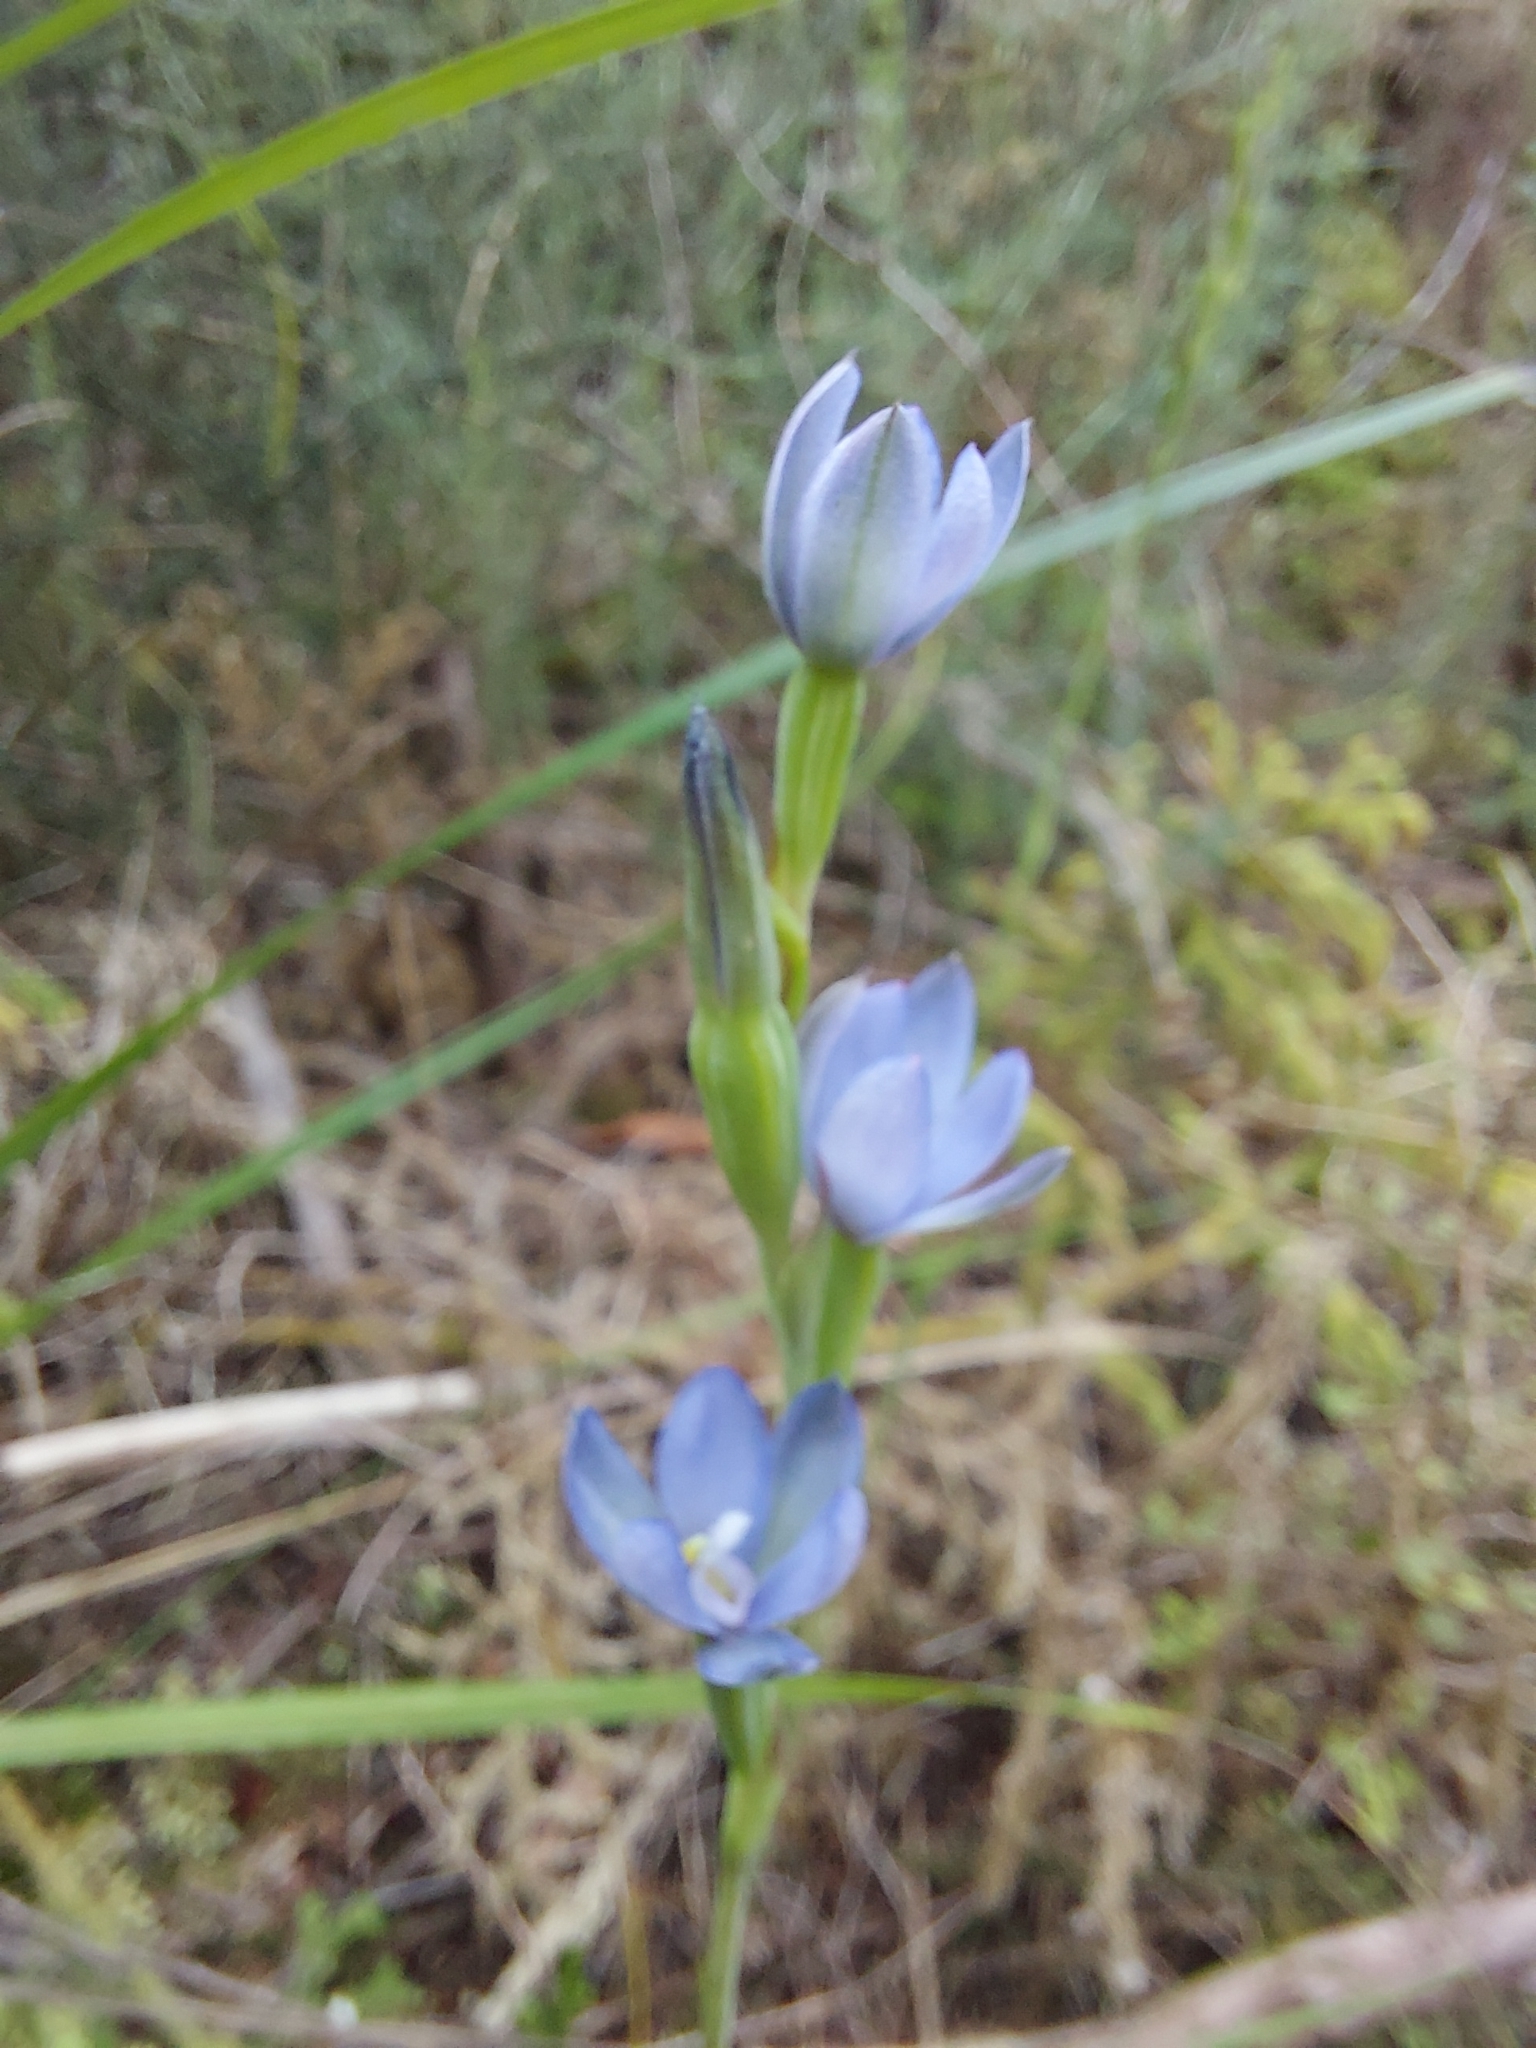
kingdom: Plantae
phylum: Tracheophyta
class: Liliopsida
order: Asparagales
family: Orchidaceae
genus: Thelymitra
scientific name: Thelymitra aemula
